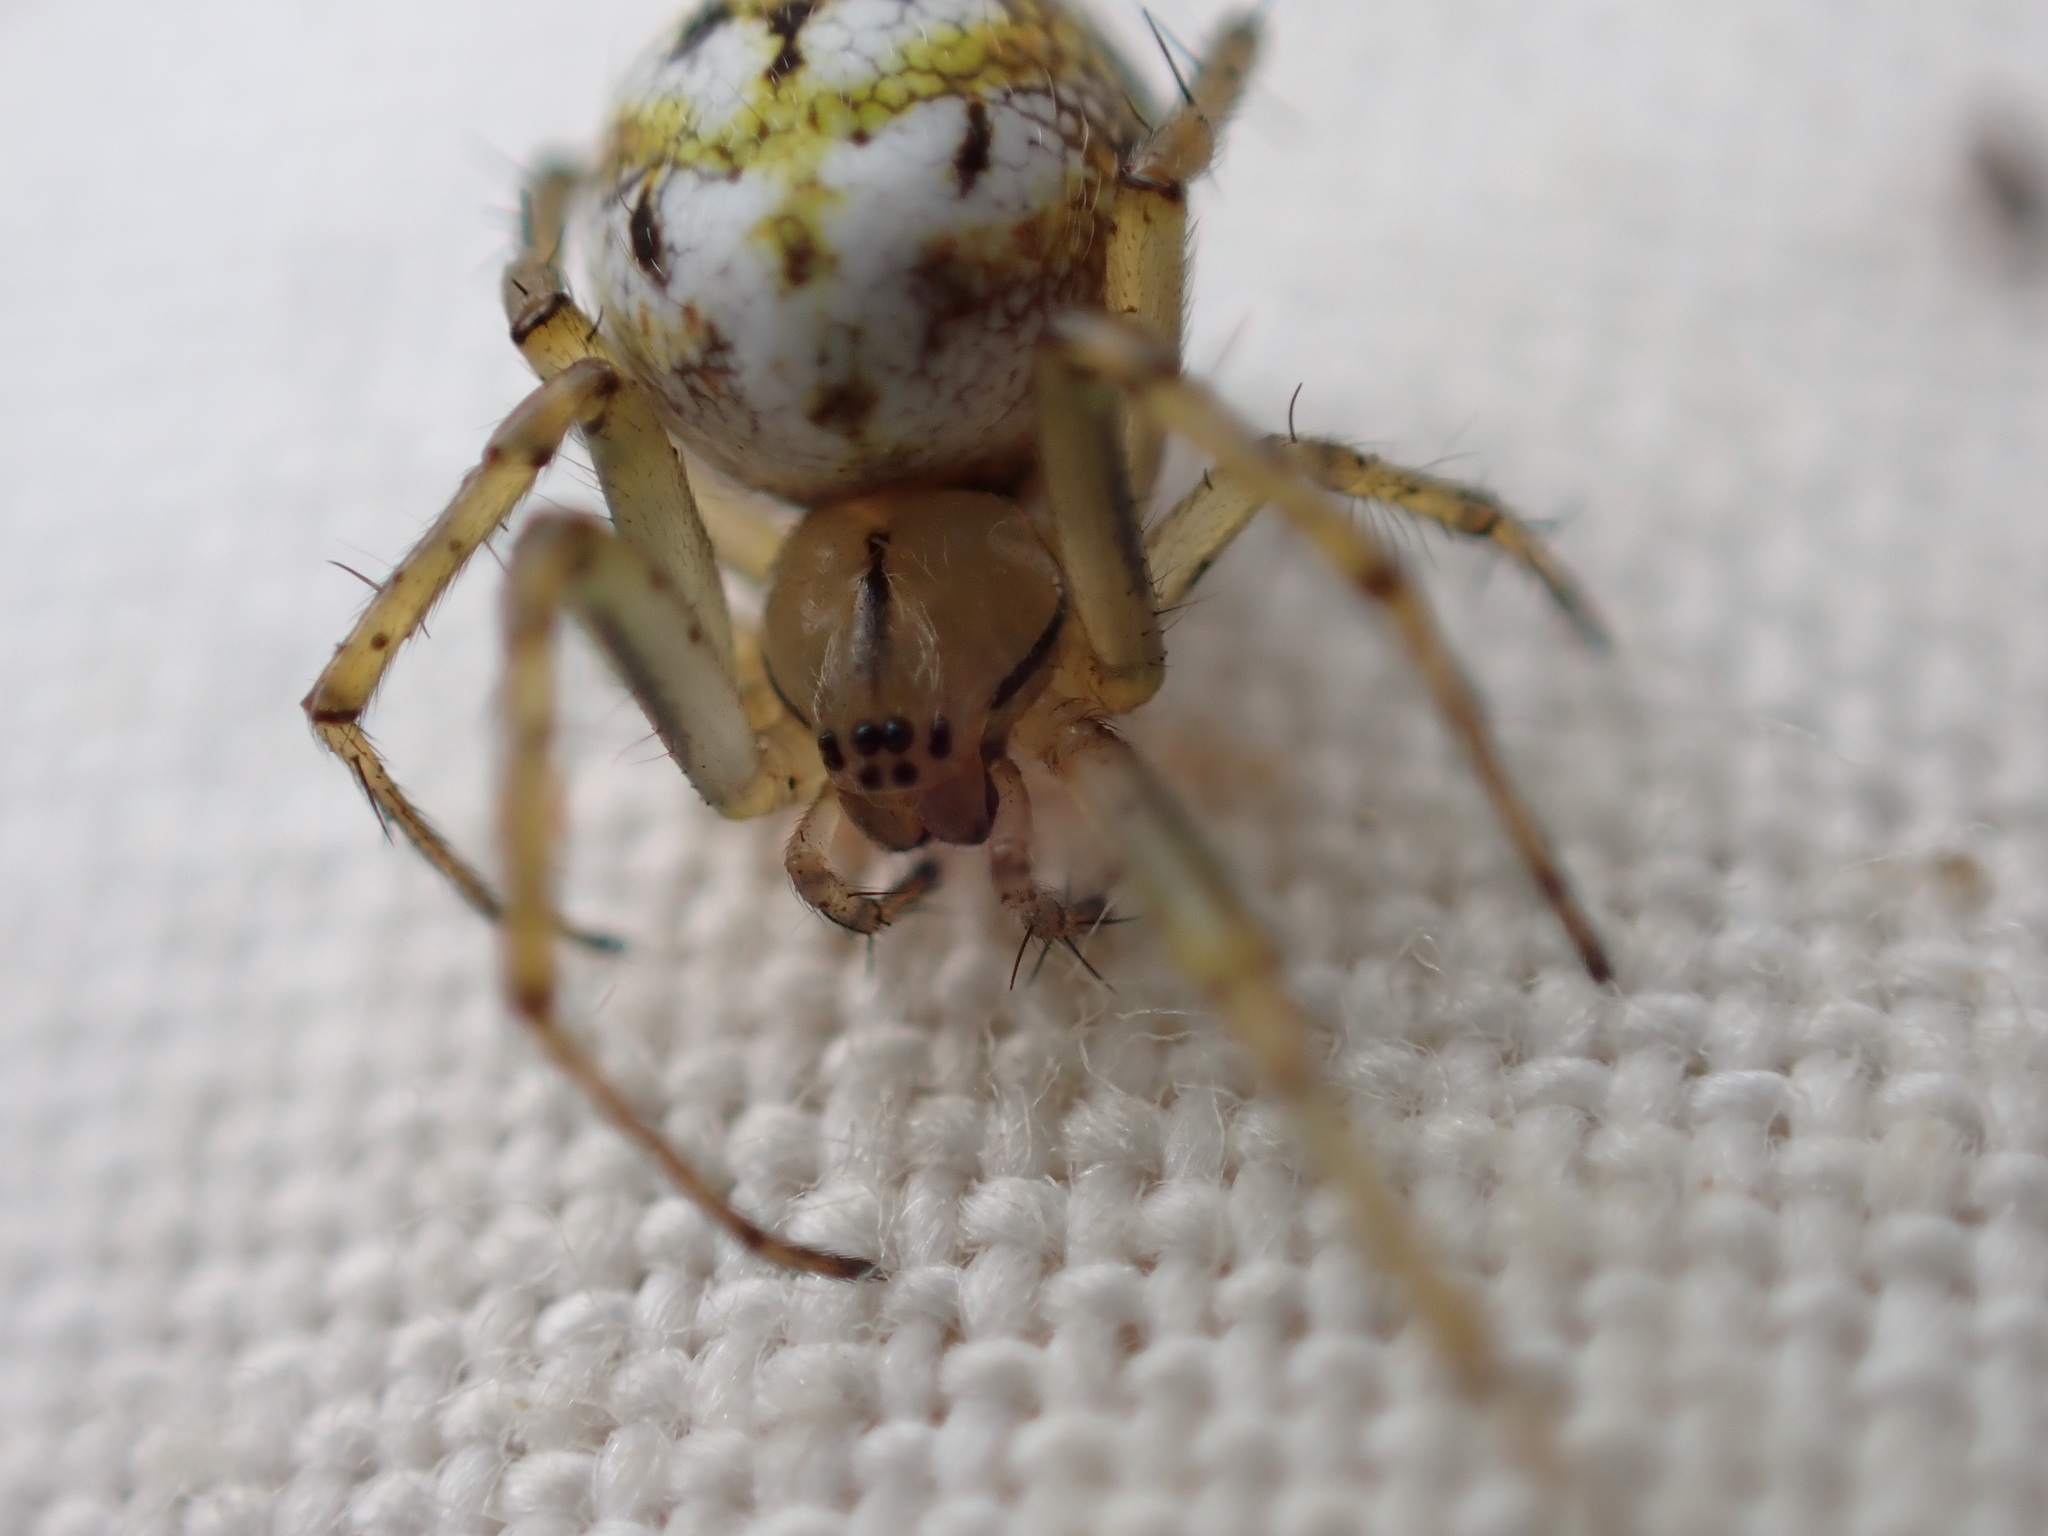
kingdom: Animalia
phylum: Arthropoda
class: Arachnida
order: Araneae
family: Araneidae
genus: Mangora
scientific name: Mangora acalypha
